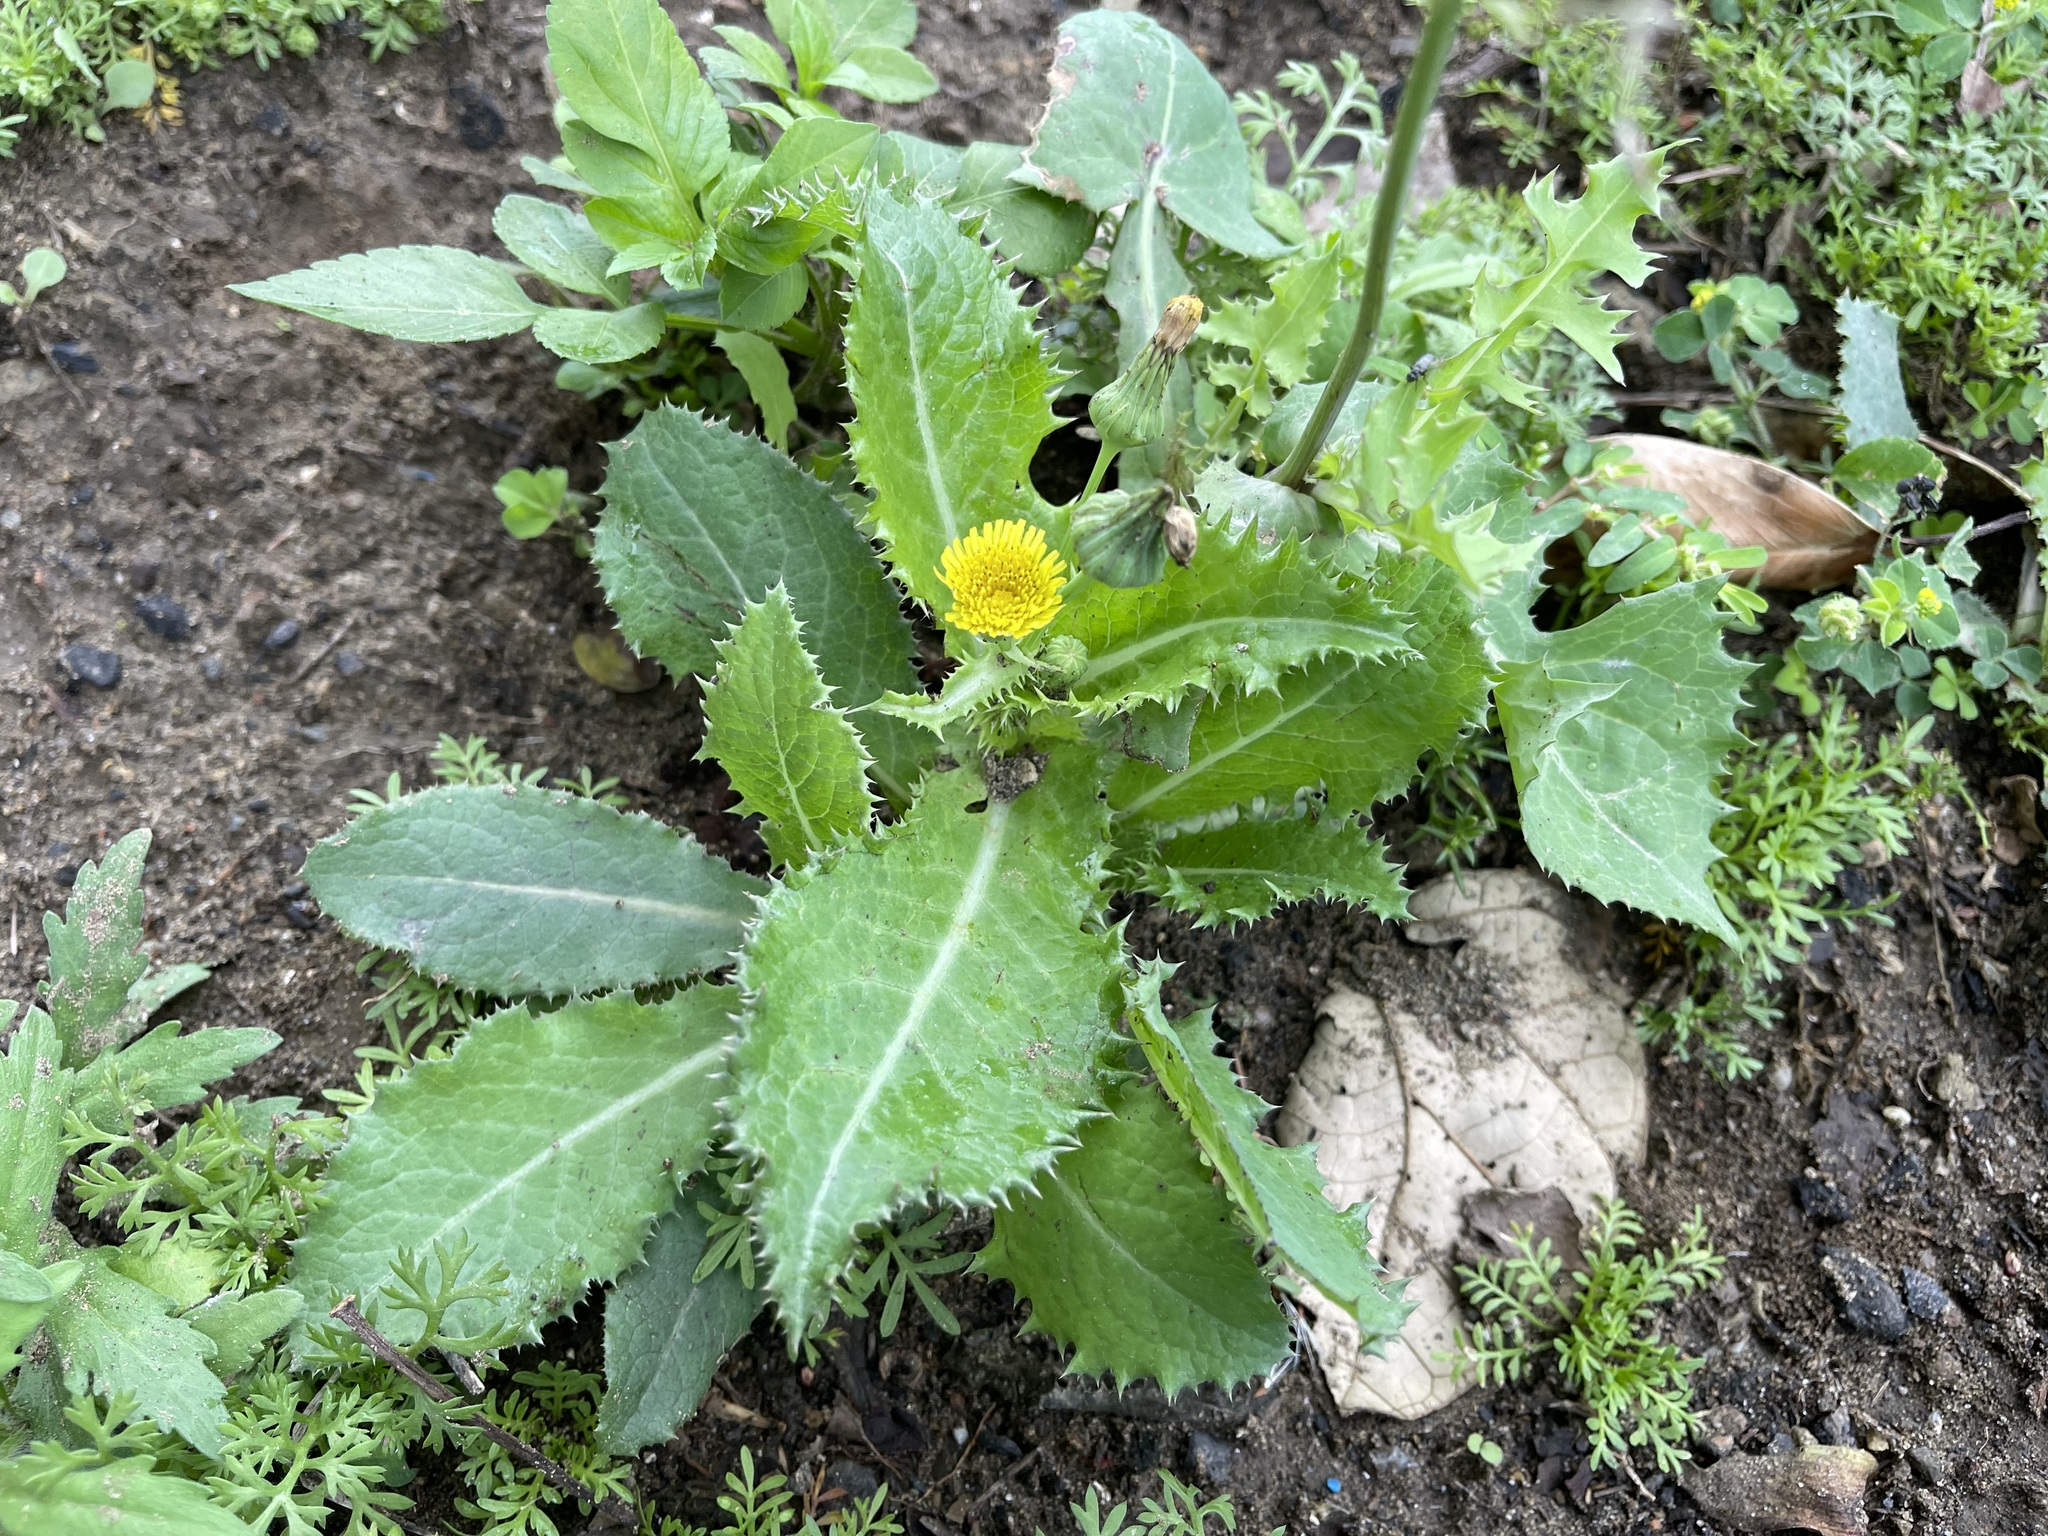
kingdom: Plantae
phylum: Tracheophyta
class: Magnoliopsida
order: Asterales
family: Asteraceae
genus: Sonchus
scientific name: Sonchus asper
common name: Prickly sow-thistle
